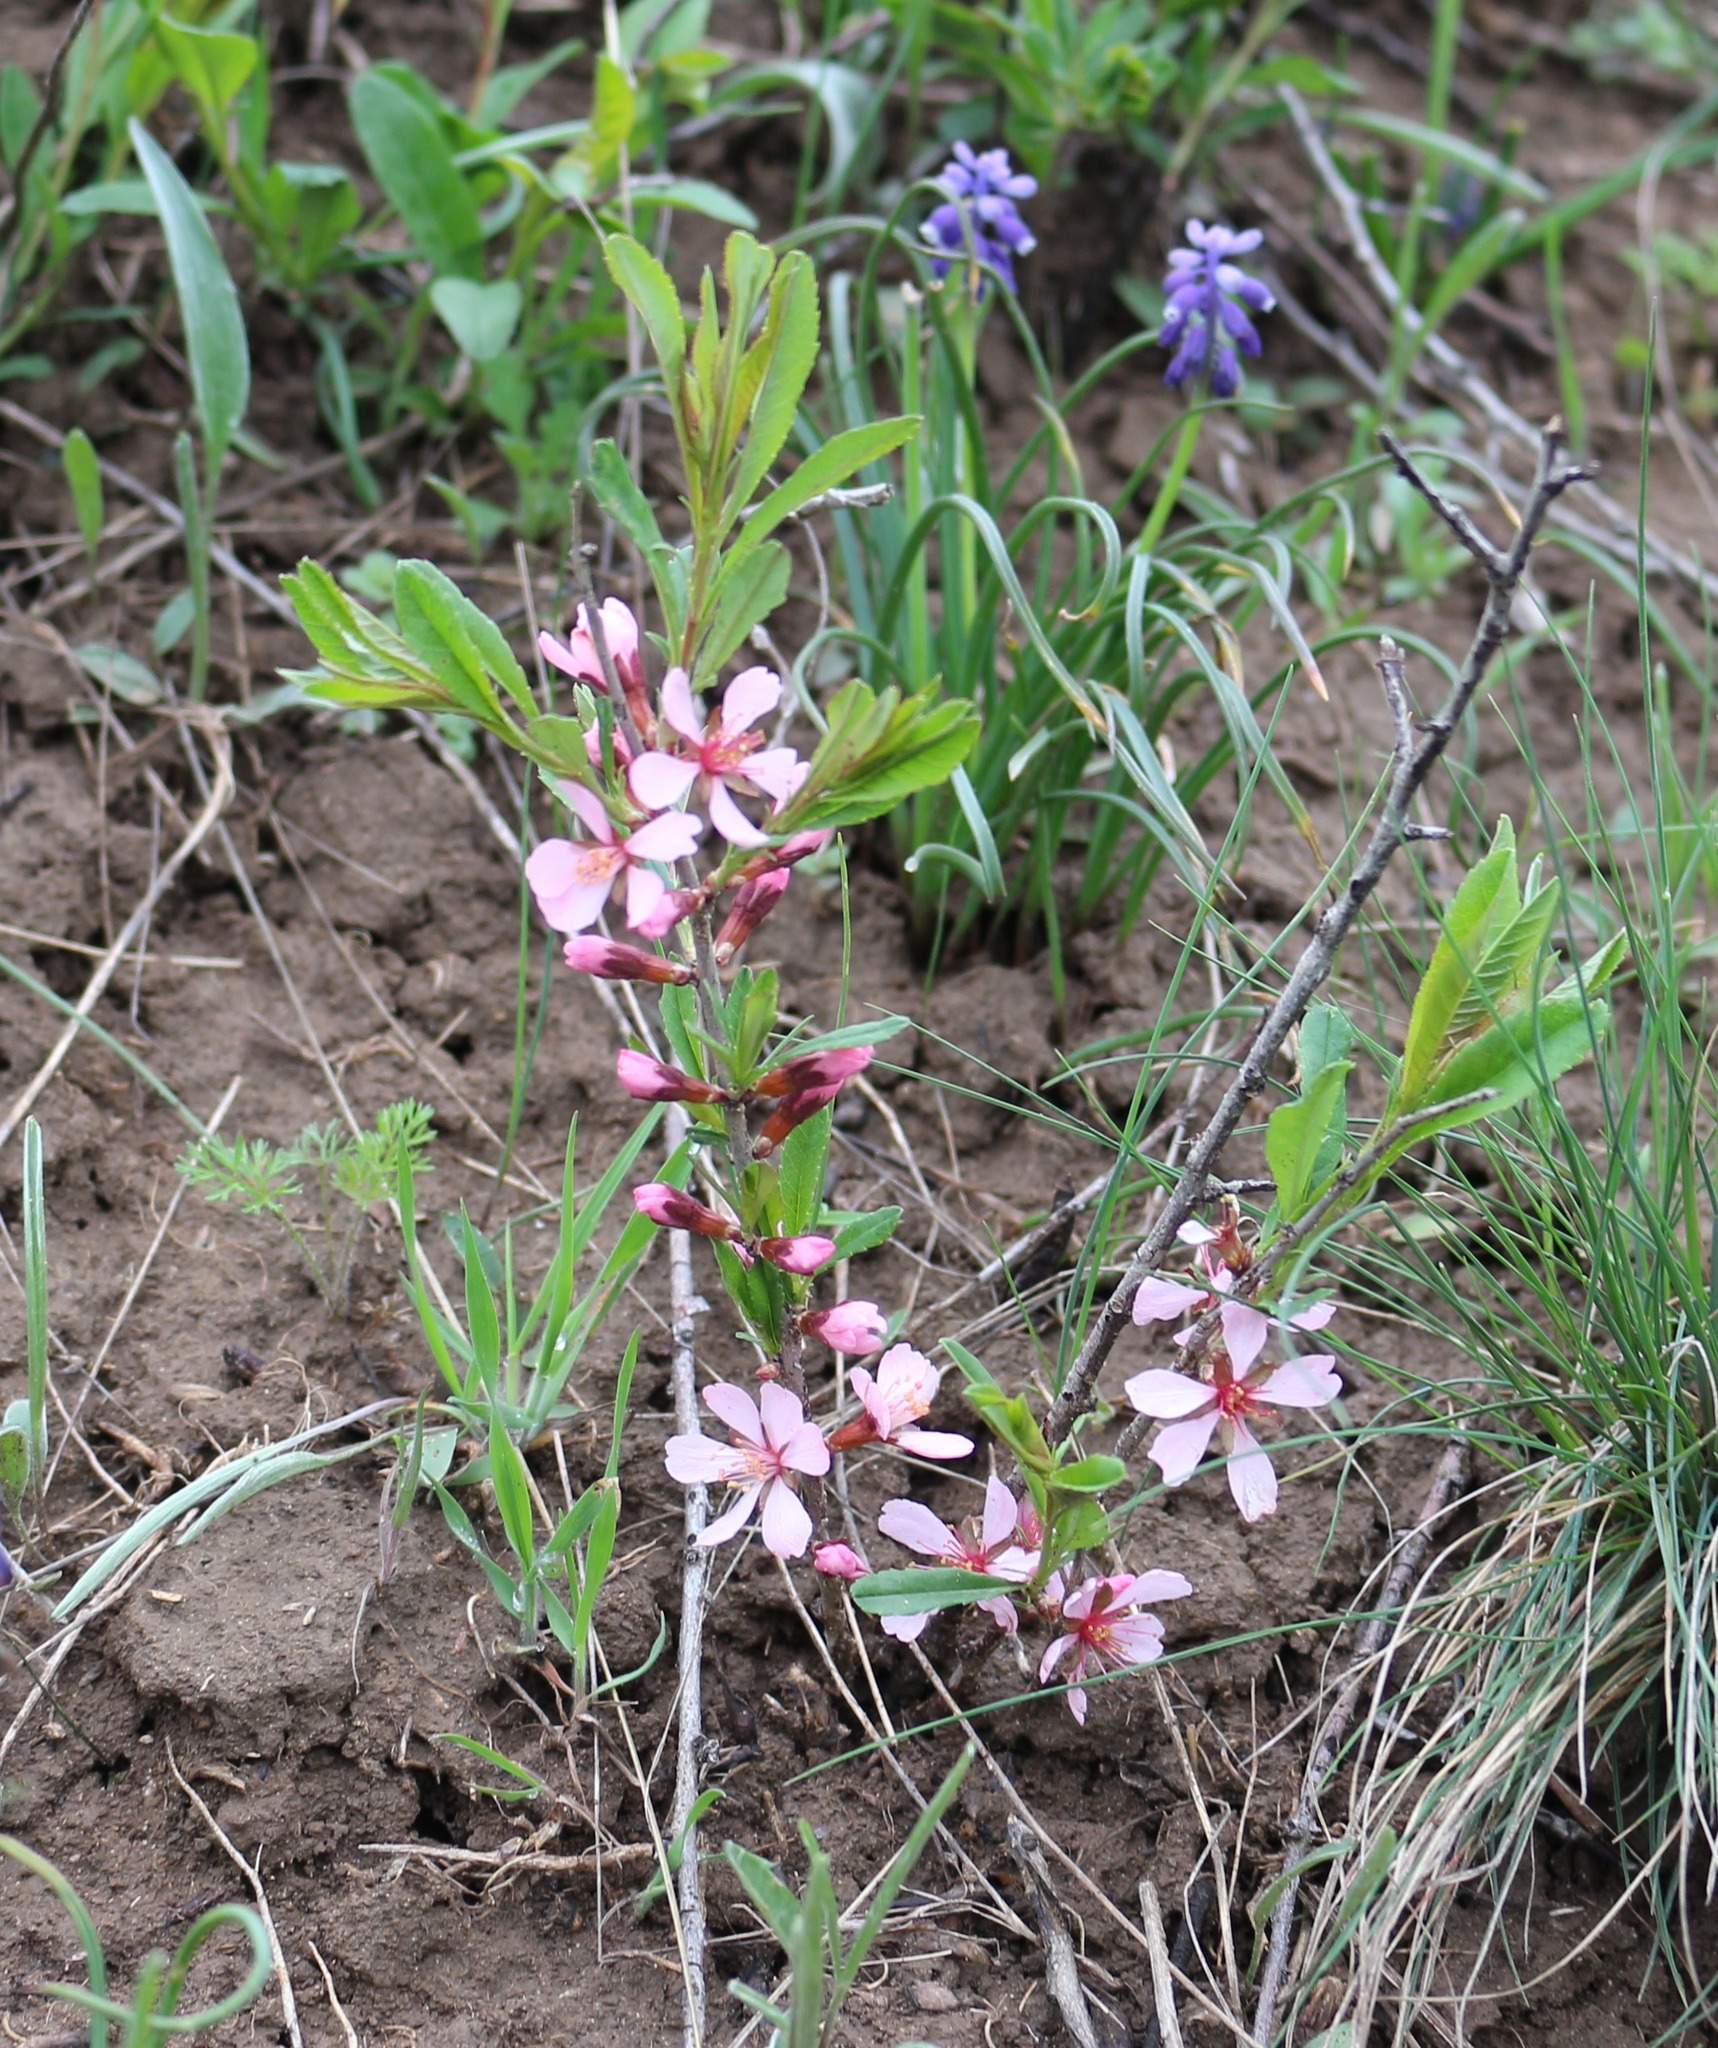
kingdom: Plantae
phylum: Tracheophyta
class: Magnoliopsida
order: Rosales
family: Rosaceae
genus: Prunus
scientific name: Prunus tenella
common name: Dwarf russian almond
